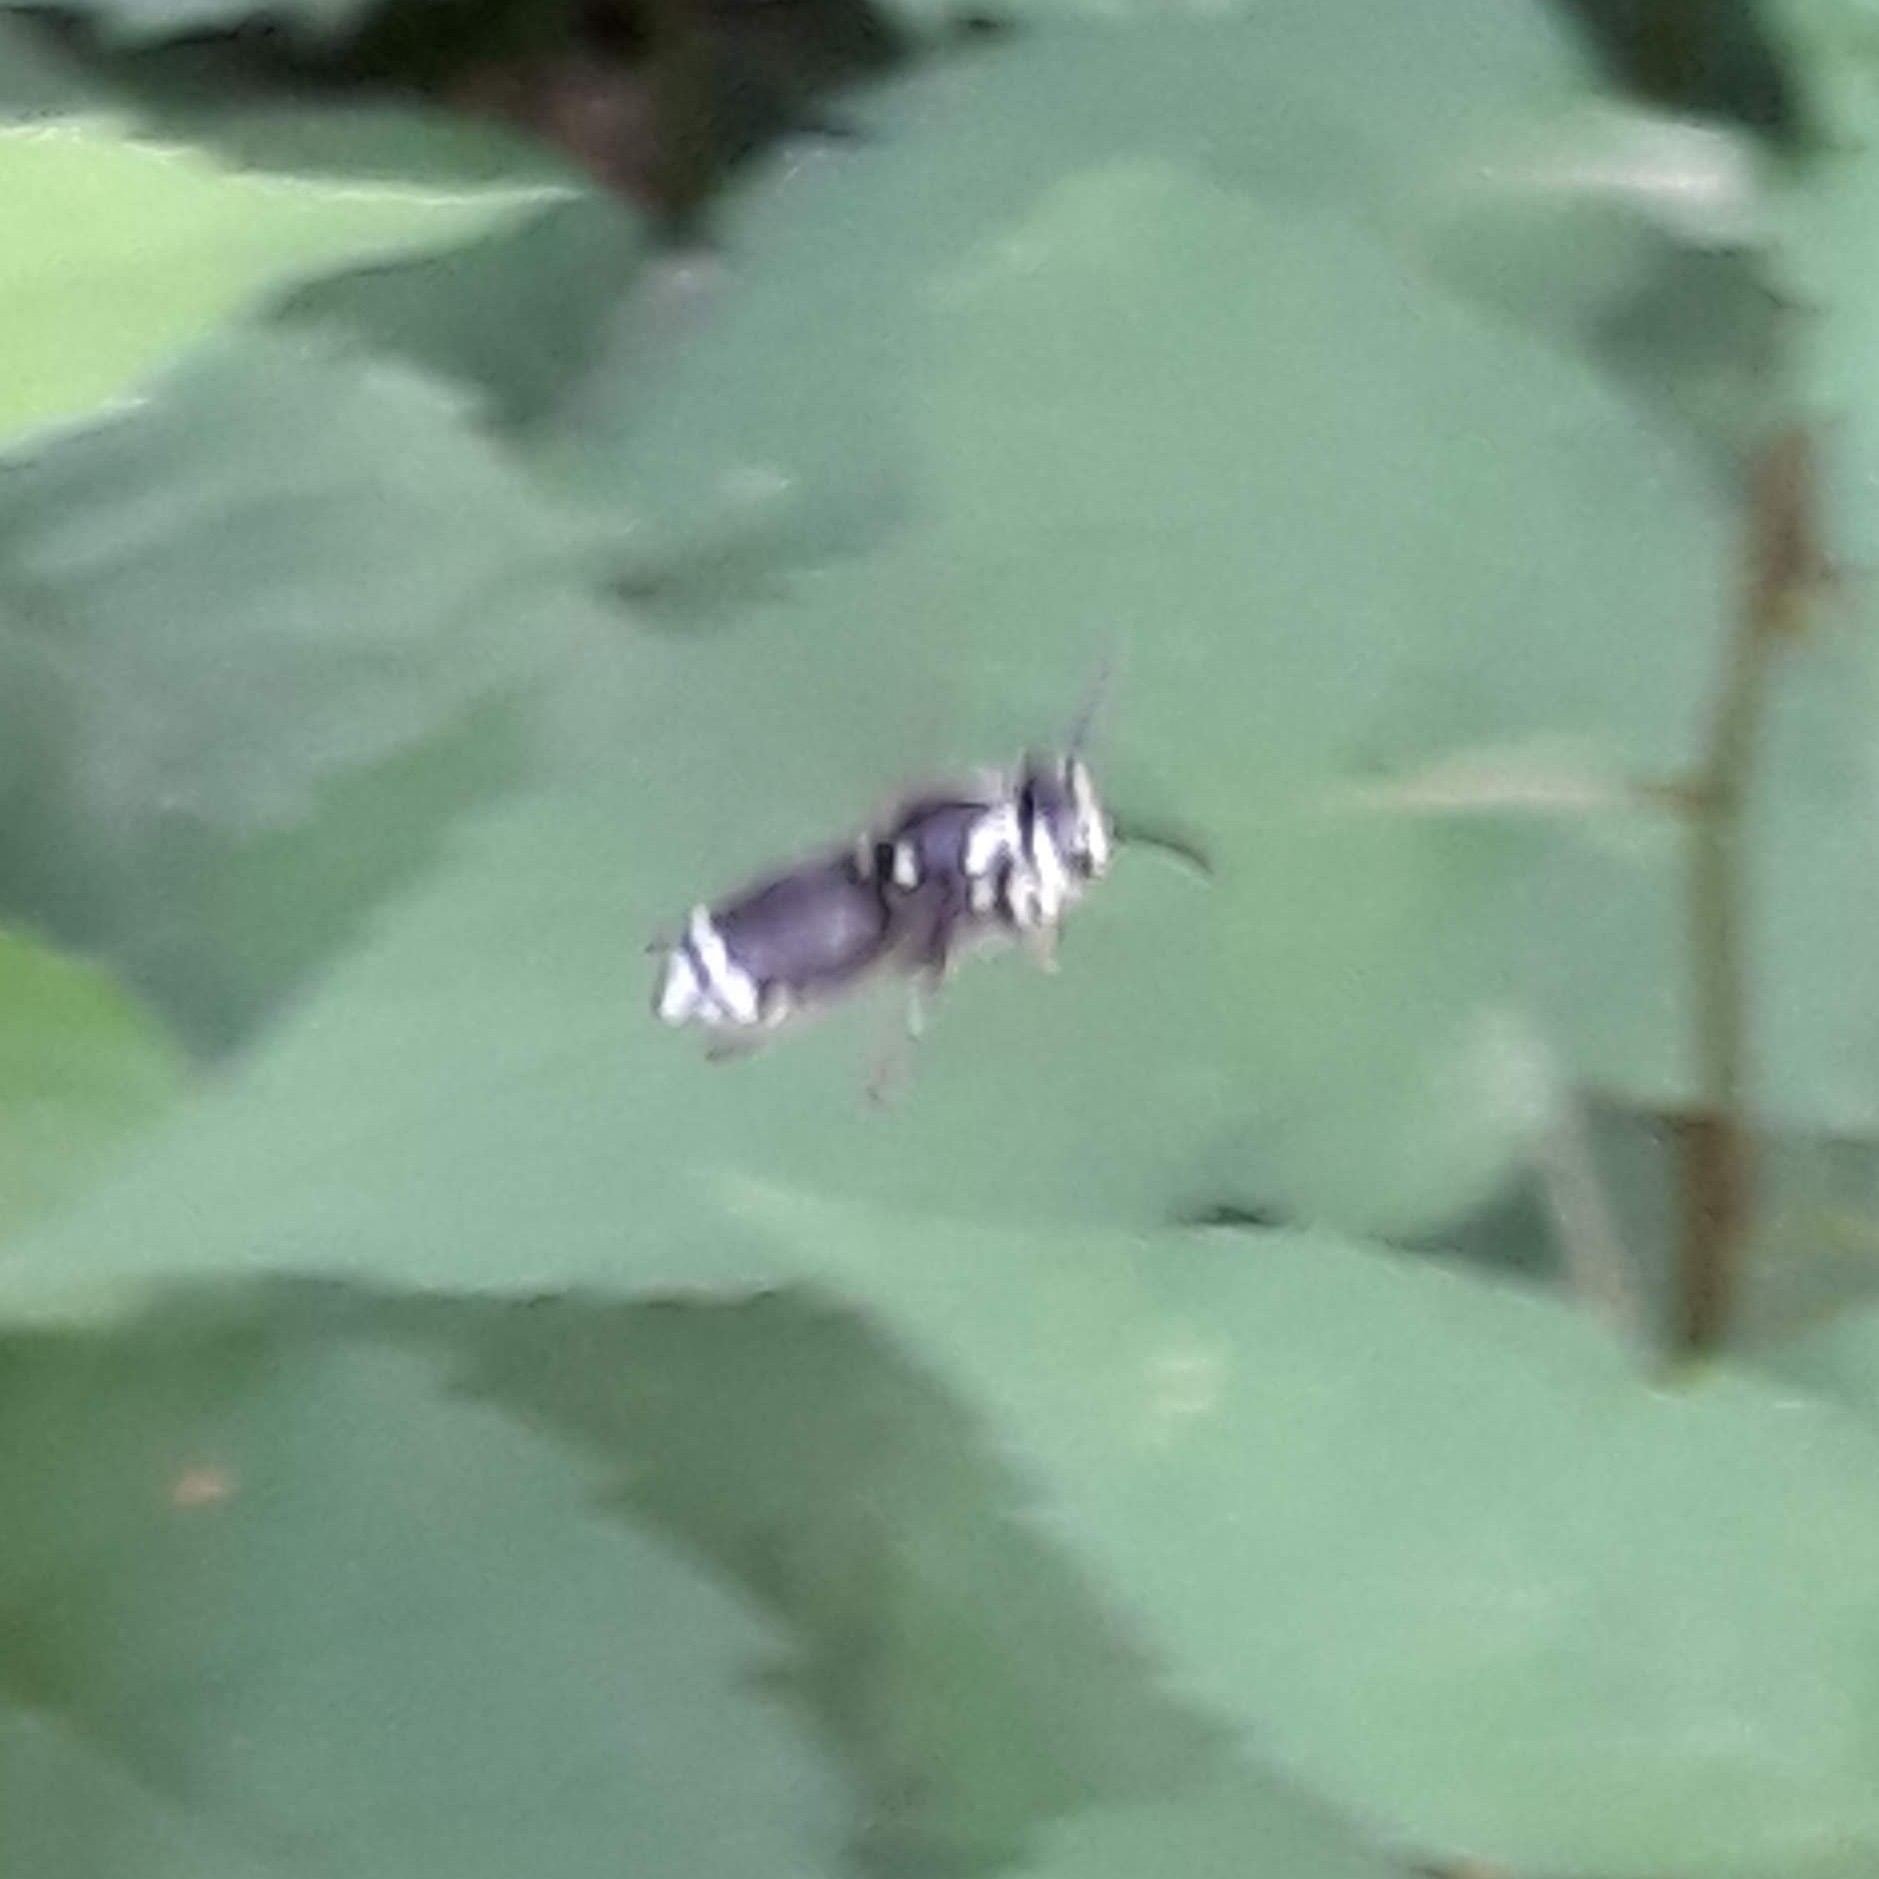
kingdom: Animalia
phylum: Arthropoda
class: Insecta
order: Hymenoptera
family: Vespidae
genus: Dolichovespula
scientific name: Dolichovespula maculata
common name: Bald-faced hornet
